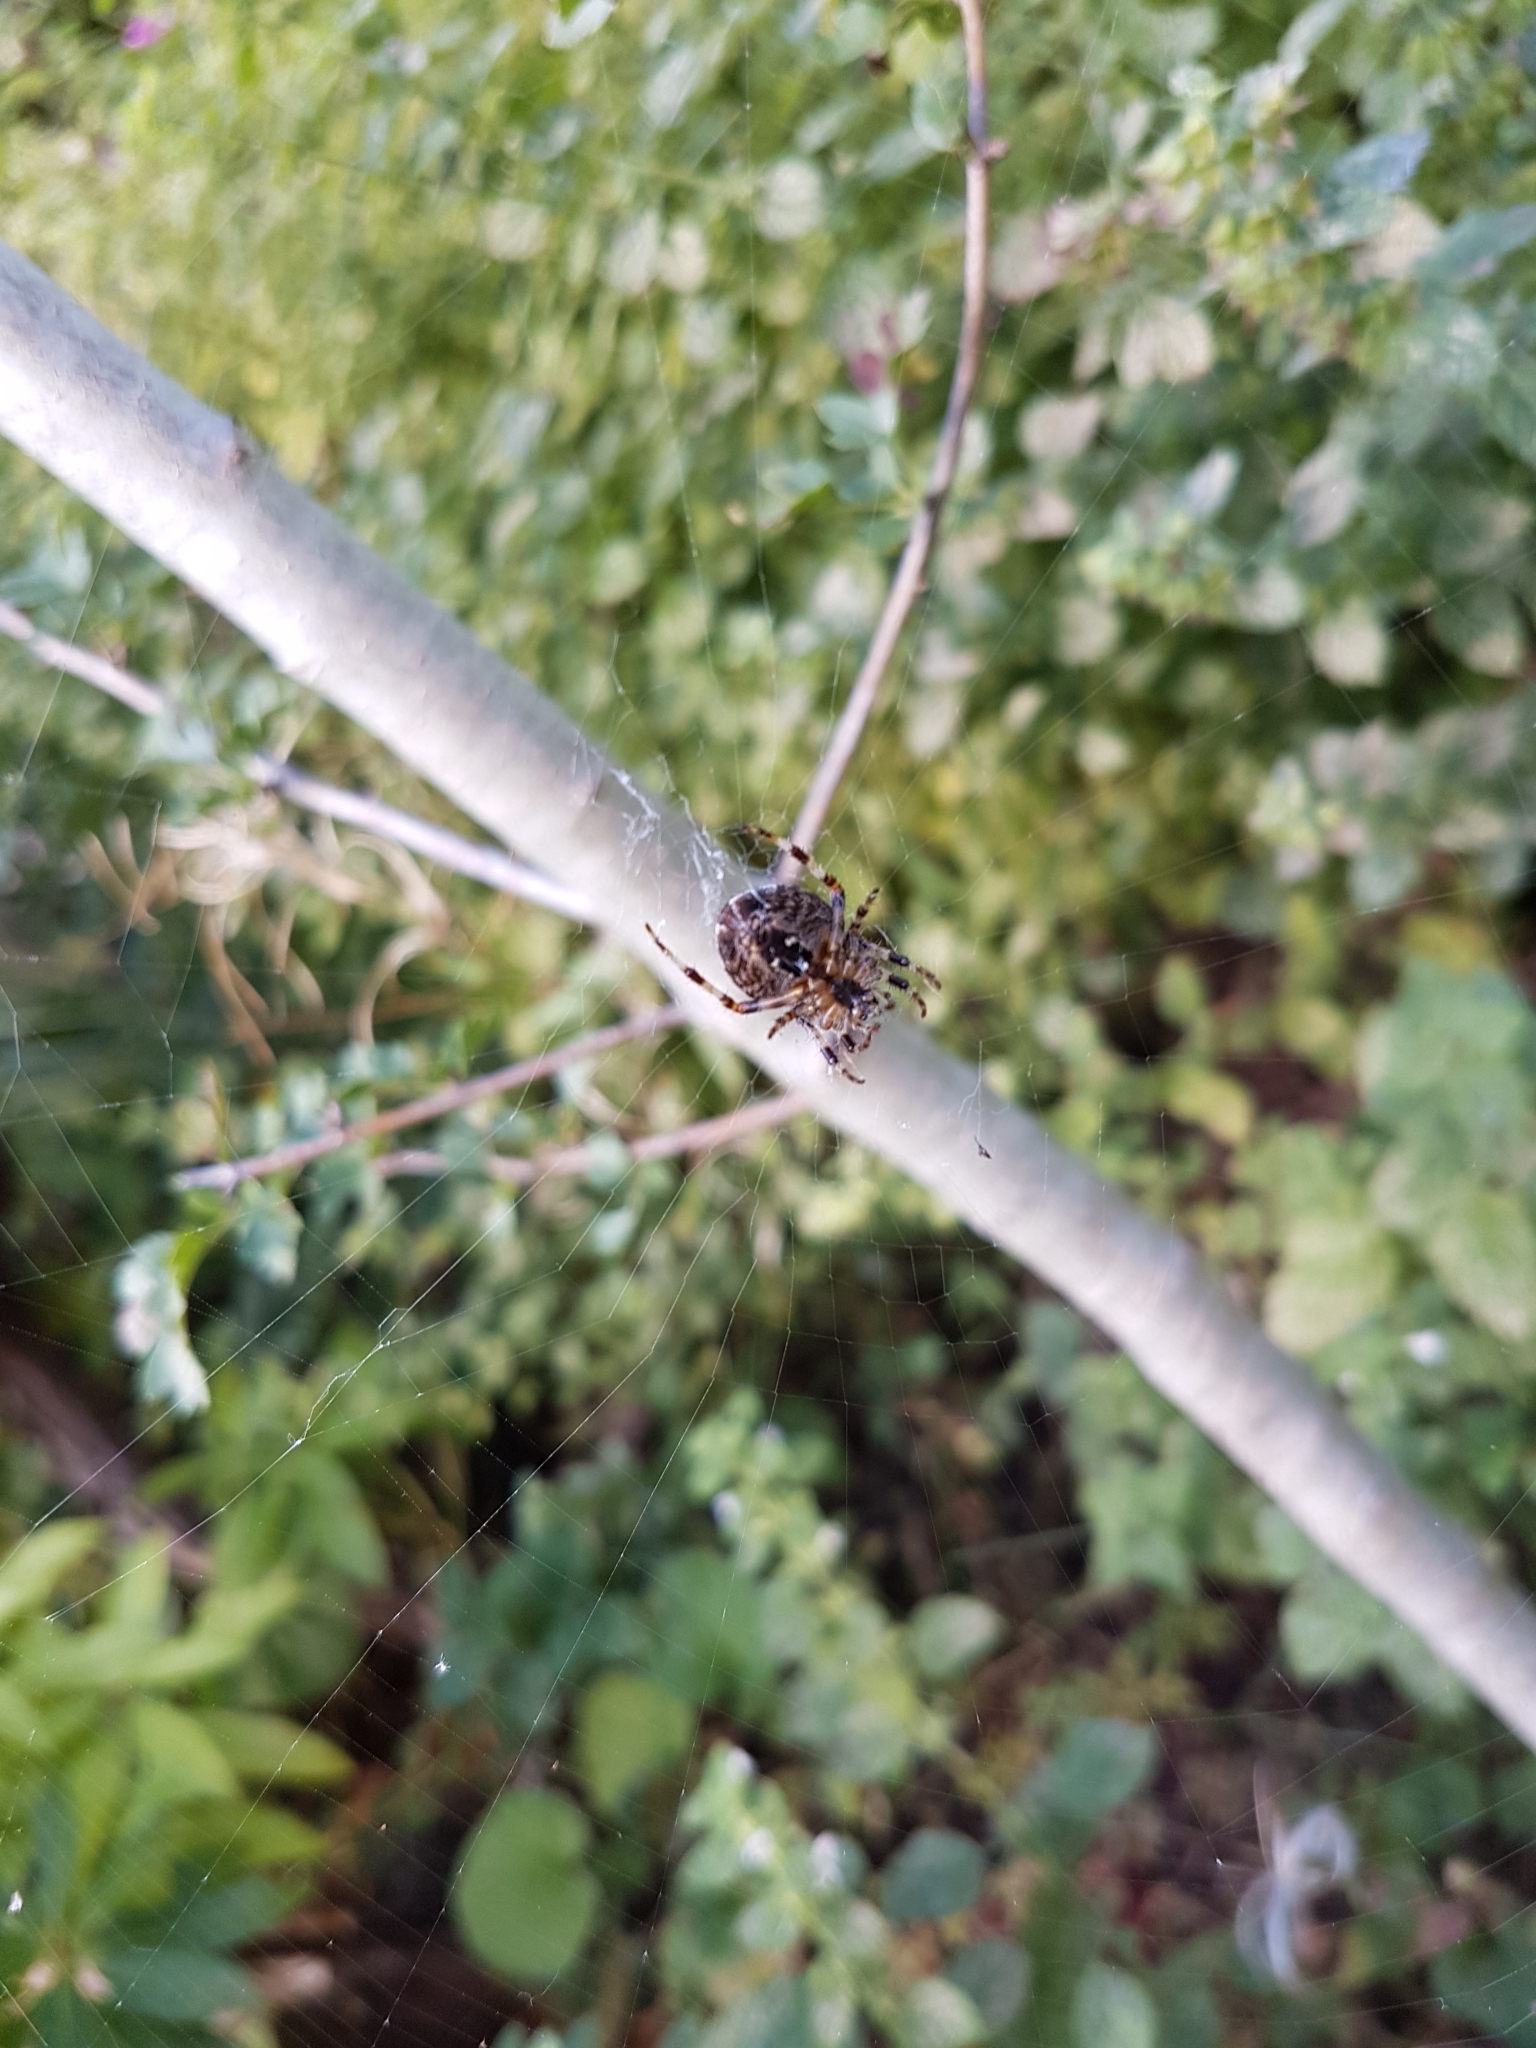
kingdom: Animalia
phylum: Arthropoda
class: Arachnida
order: Araneae
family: Araneidae
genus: Araneus
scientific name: Araneus diadematus
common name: Cross orbweaver
